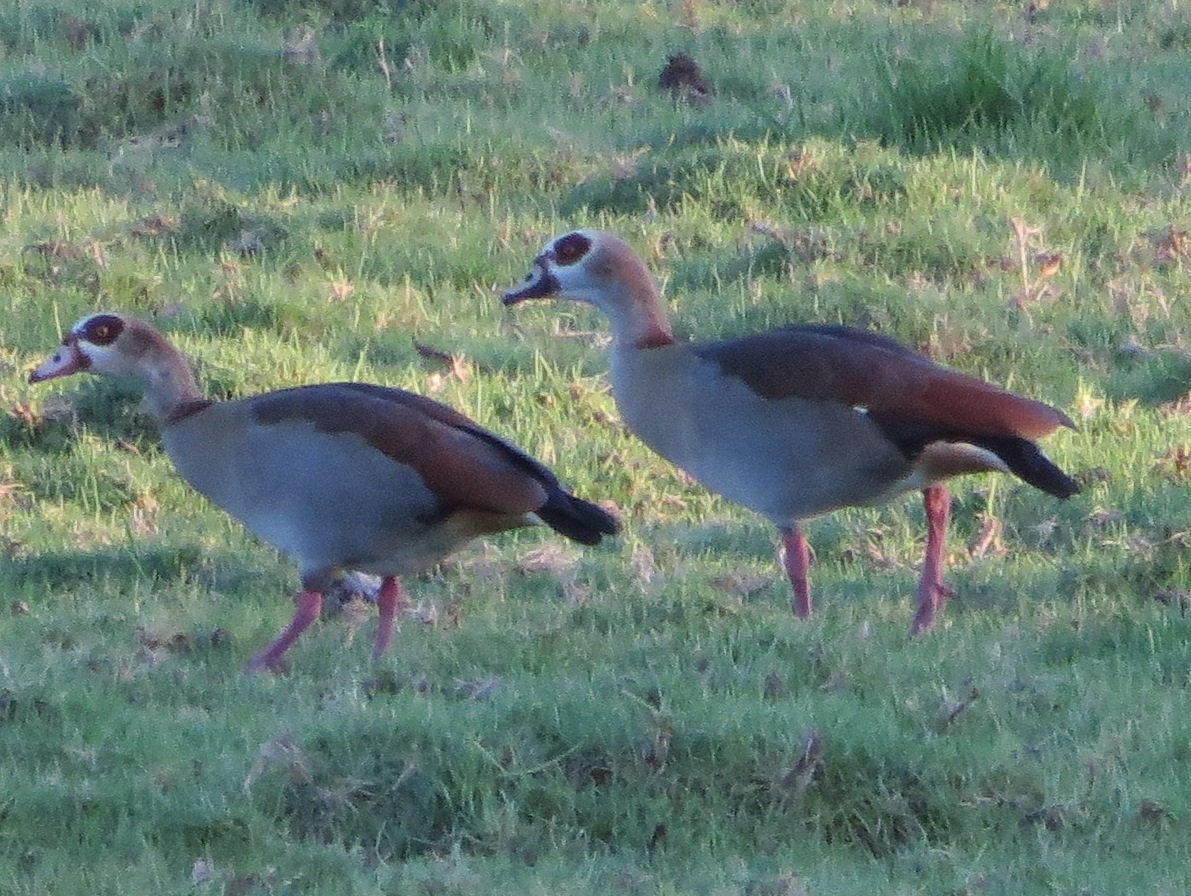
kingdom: Animalia
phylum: Chordata
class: Aves
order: Anseriformes
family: Anatidae
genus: Alopochen
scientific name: Alopochen aegyptiaca
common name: Egyptian goose
